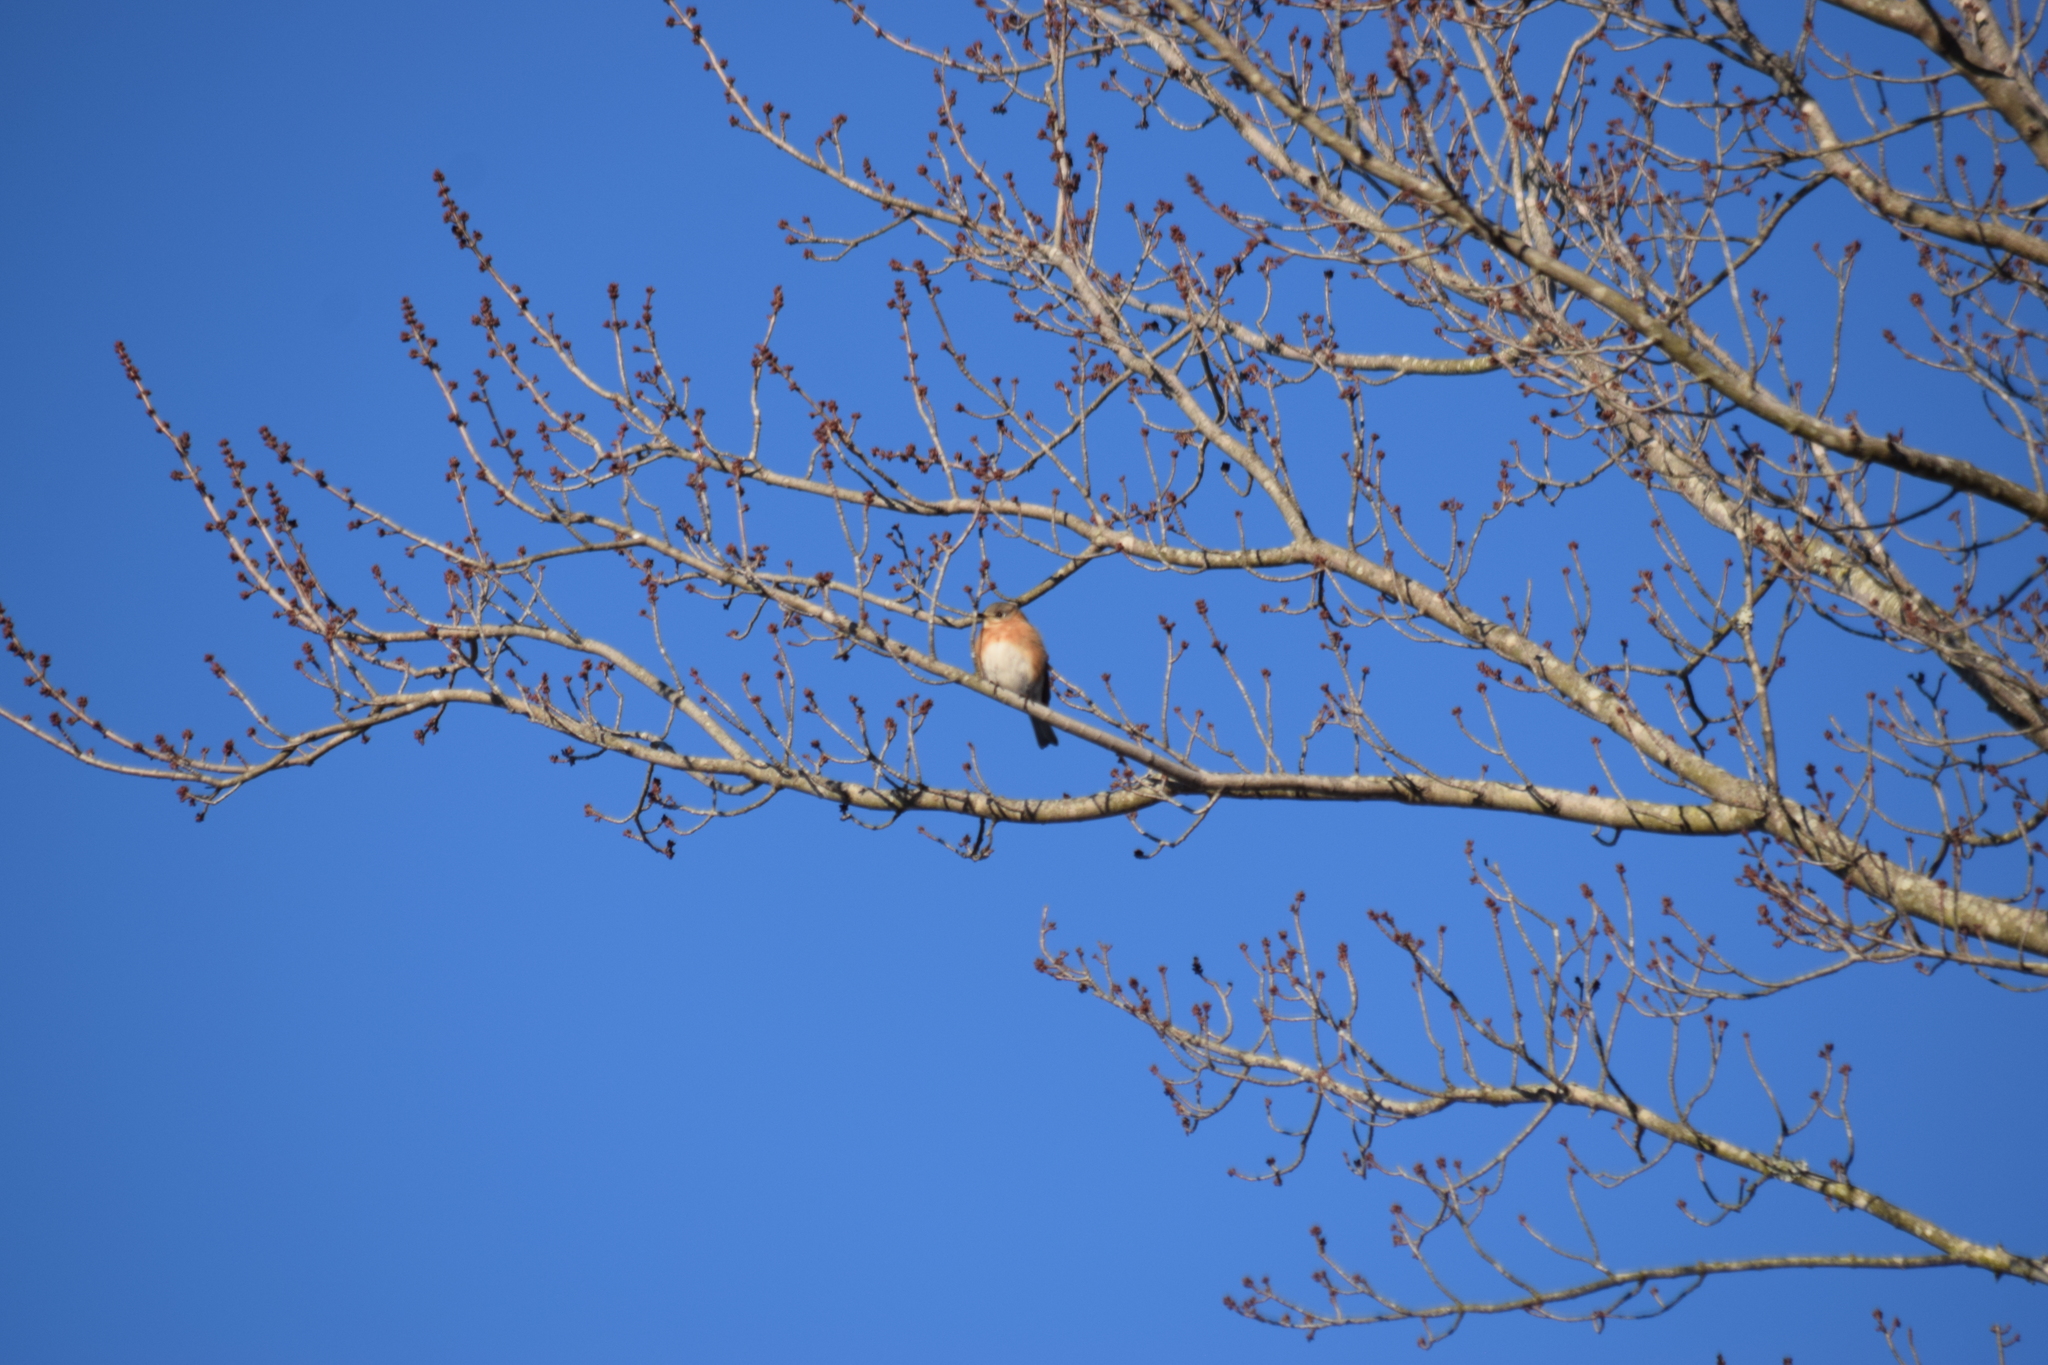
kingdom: Animalia
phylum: Chordata
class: Aves
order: Passeriformes
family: Turdidae
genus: Sialia
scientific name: Sialia sialis
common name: Eastern bluebird
